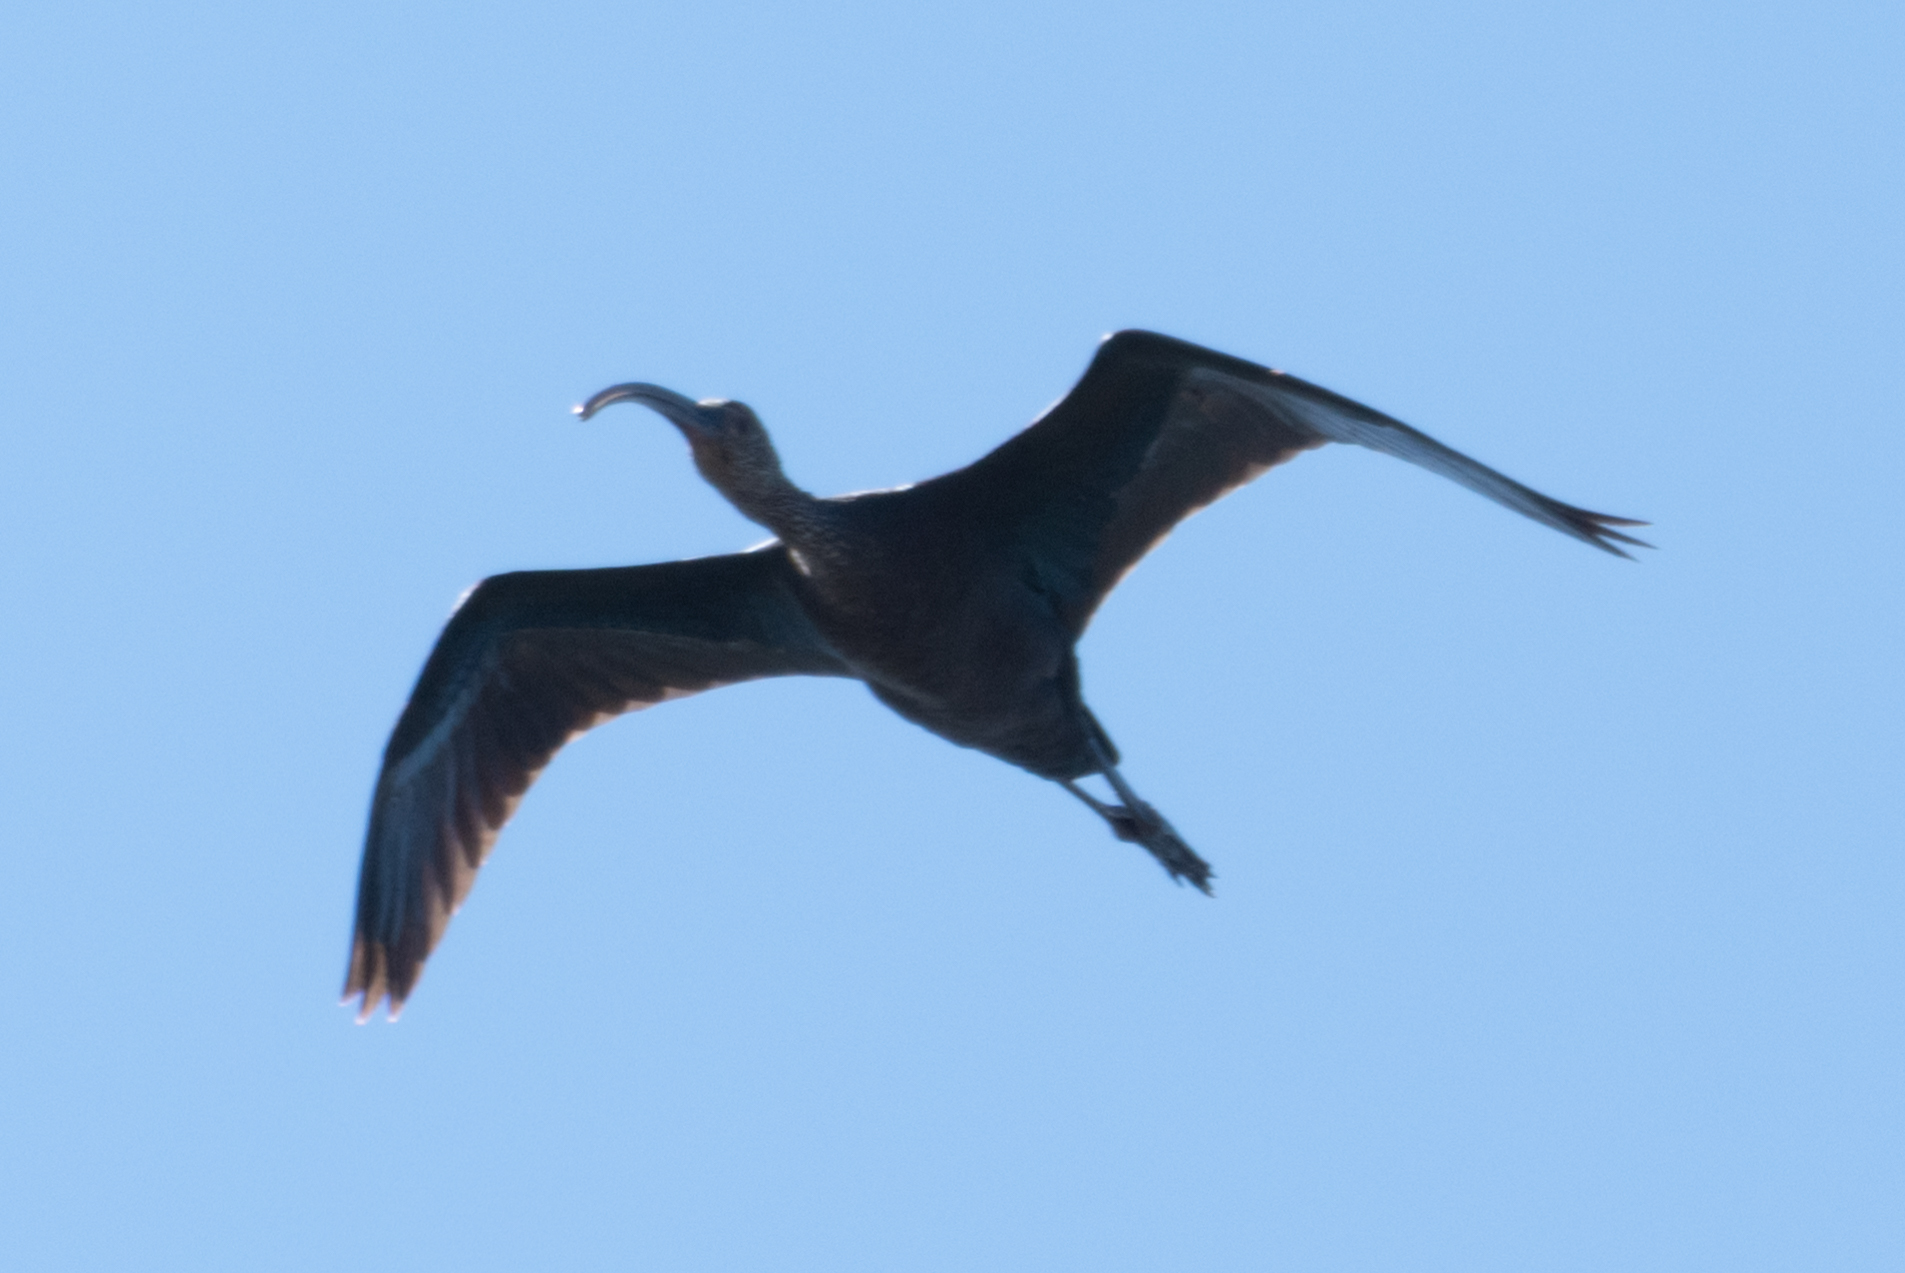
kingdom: Animalia
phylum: Chordata
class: Aves
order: Pelecaniformes
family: Threskiornithidae
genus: Plegadis
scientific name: Plegadis chihi
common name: White-faced ibis
